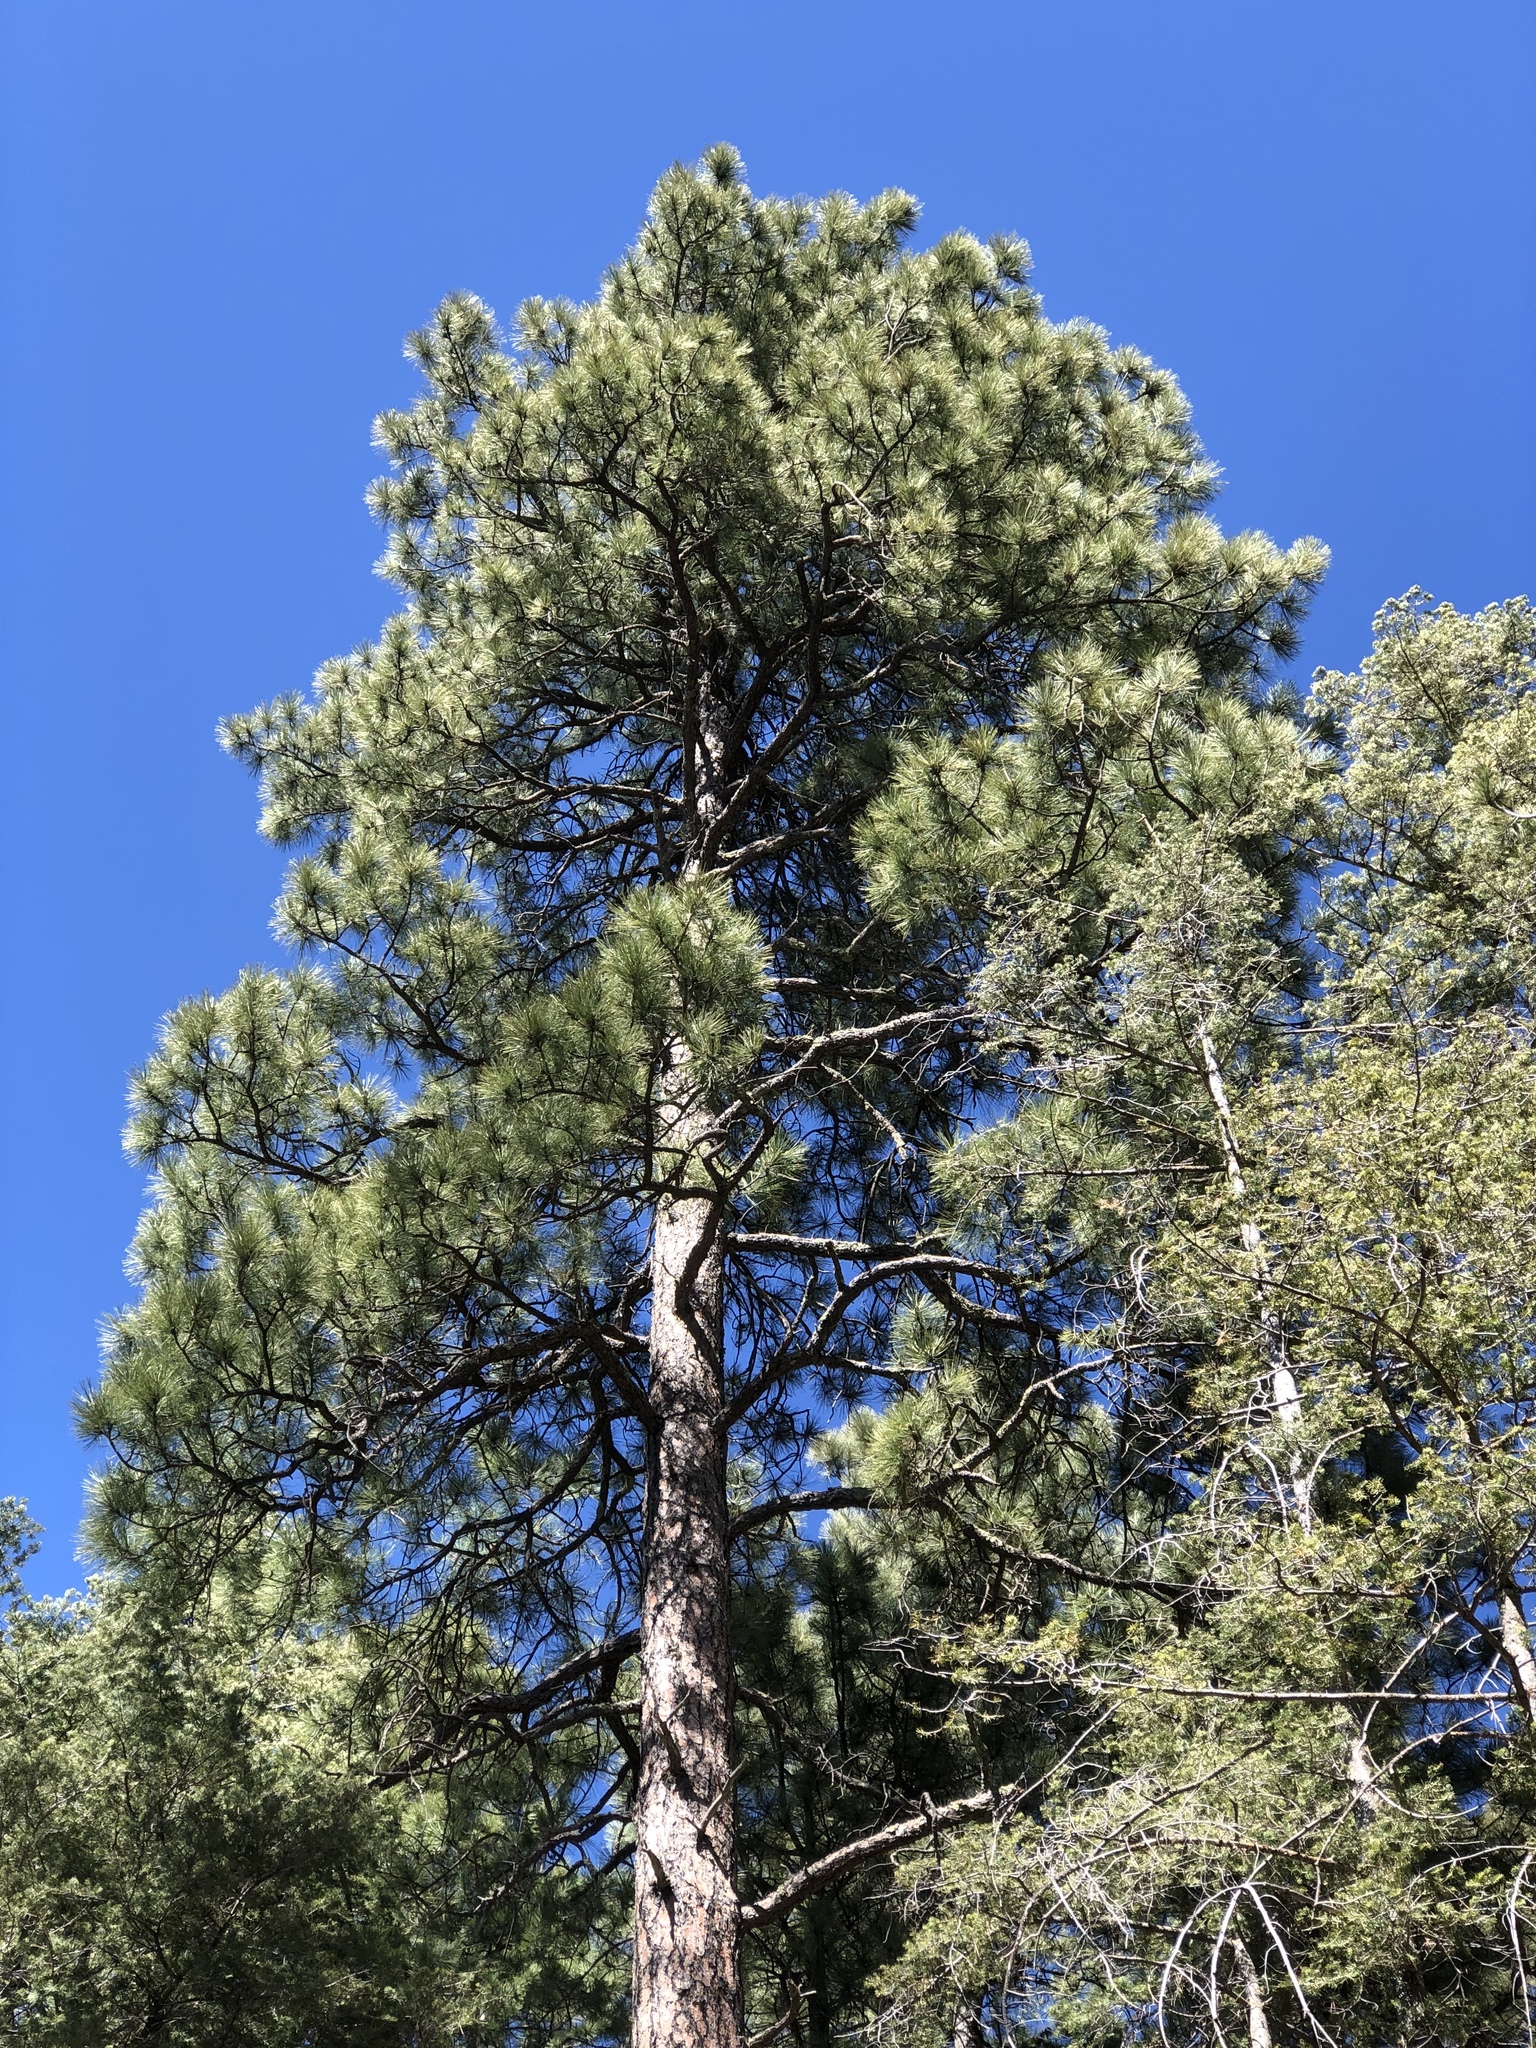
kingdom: Plantae
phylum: Tracheophyta
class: Pinopsida
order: Pinales
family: Pinaceae
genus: Pinus
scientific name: Pinus ponderosa
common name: Western yellow-pine
